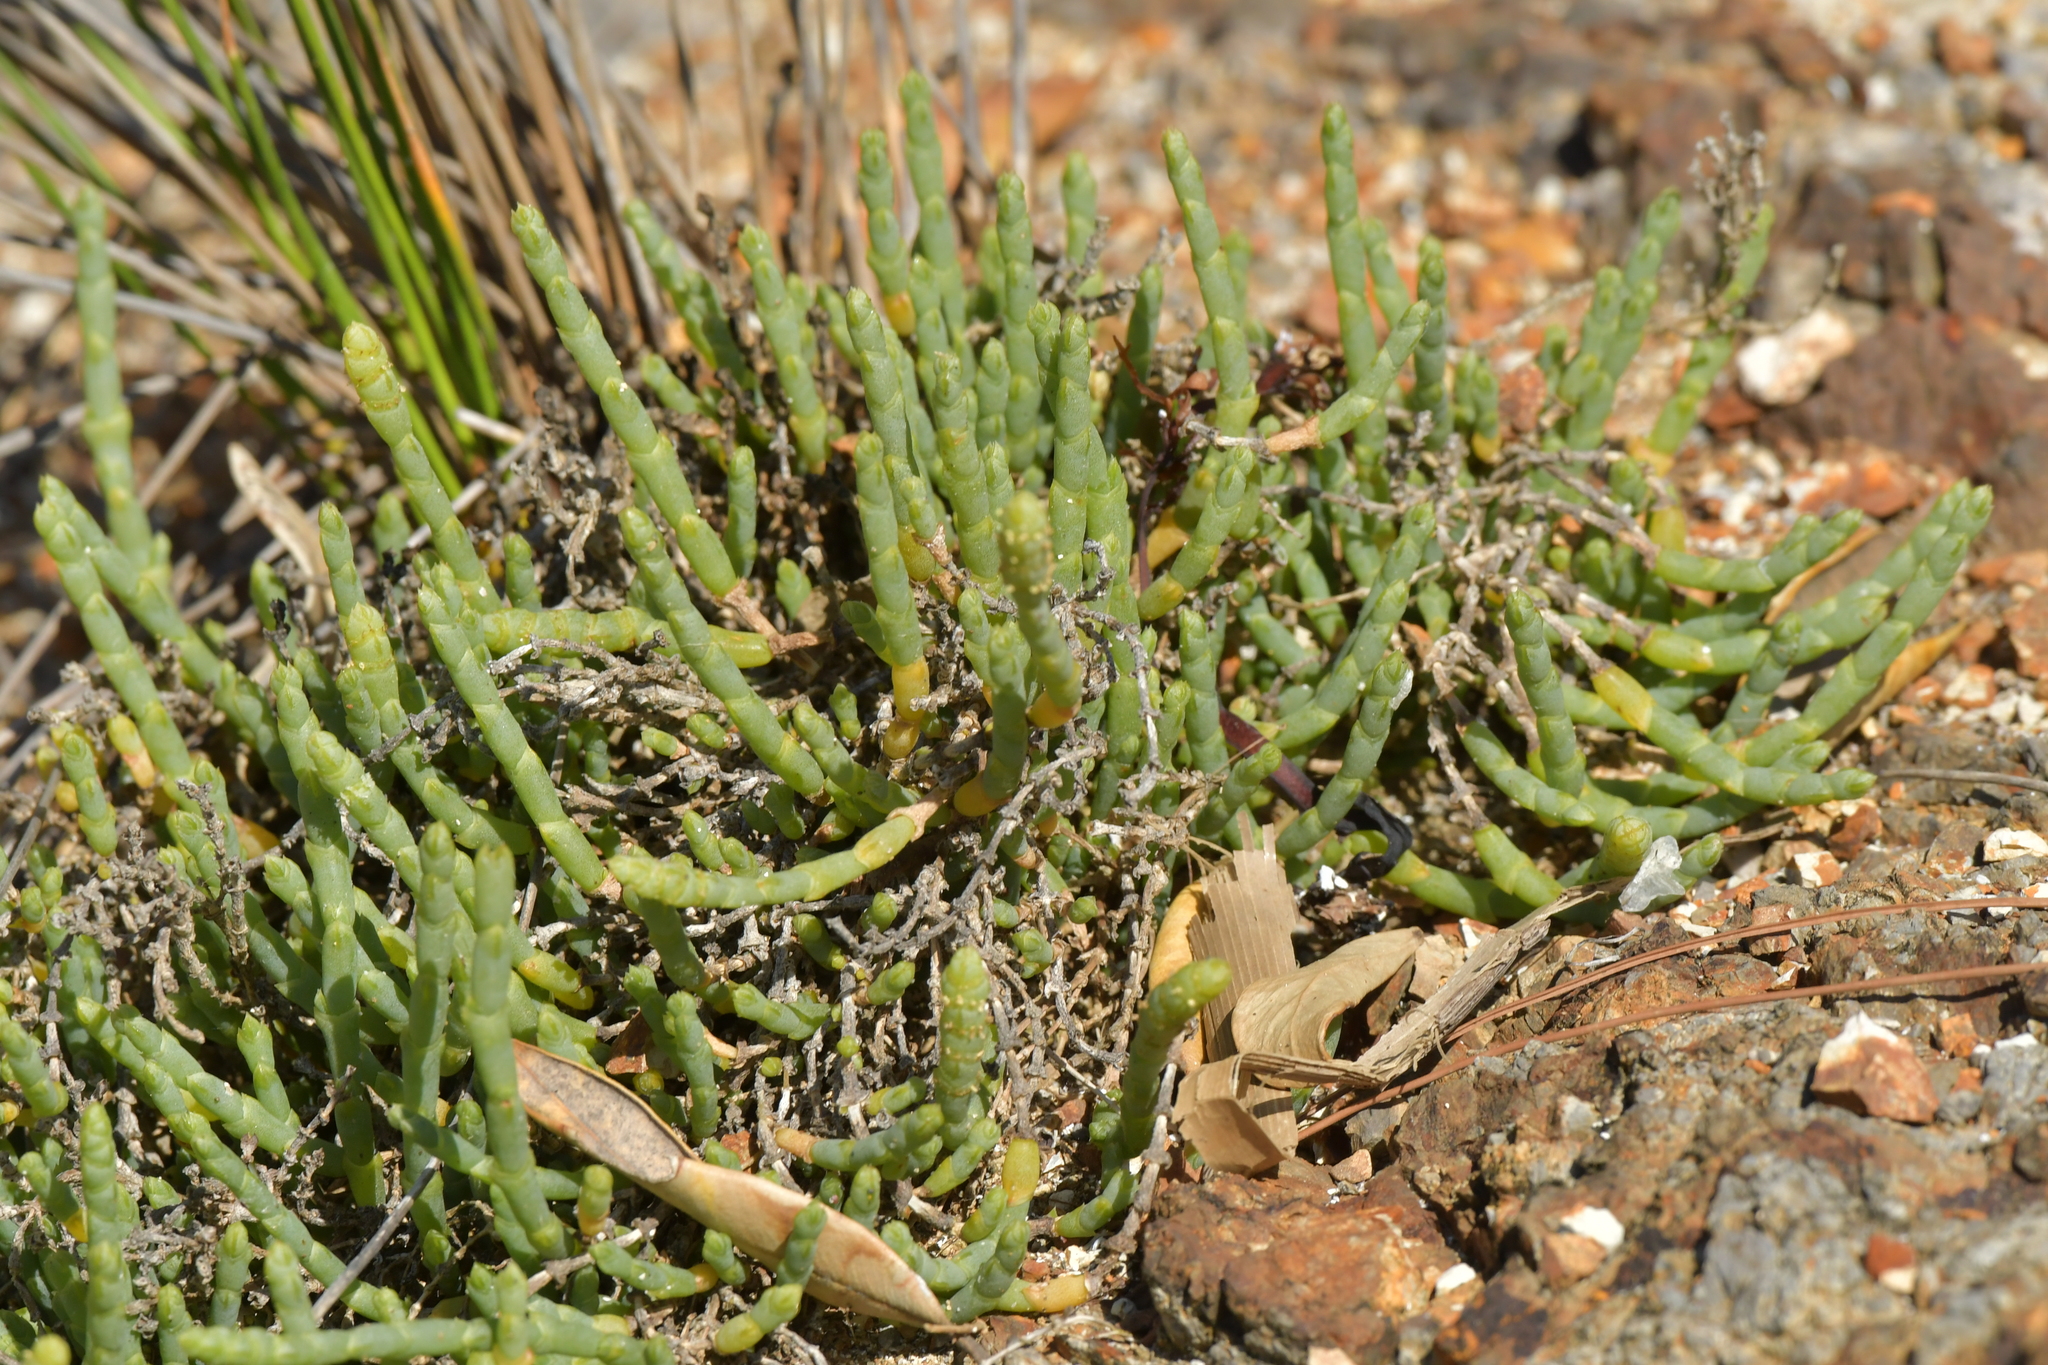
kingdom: Plantae
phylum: Tracheophyta
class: Magnoliopsida
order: Caryophyllales
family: Amaranthaceae
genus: Salicornia
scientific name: Salicornia quinqueflora
